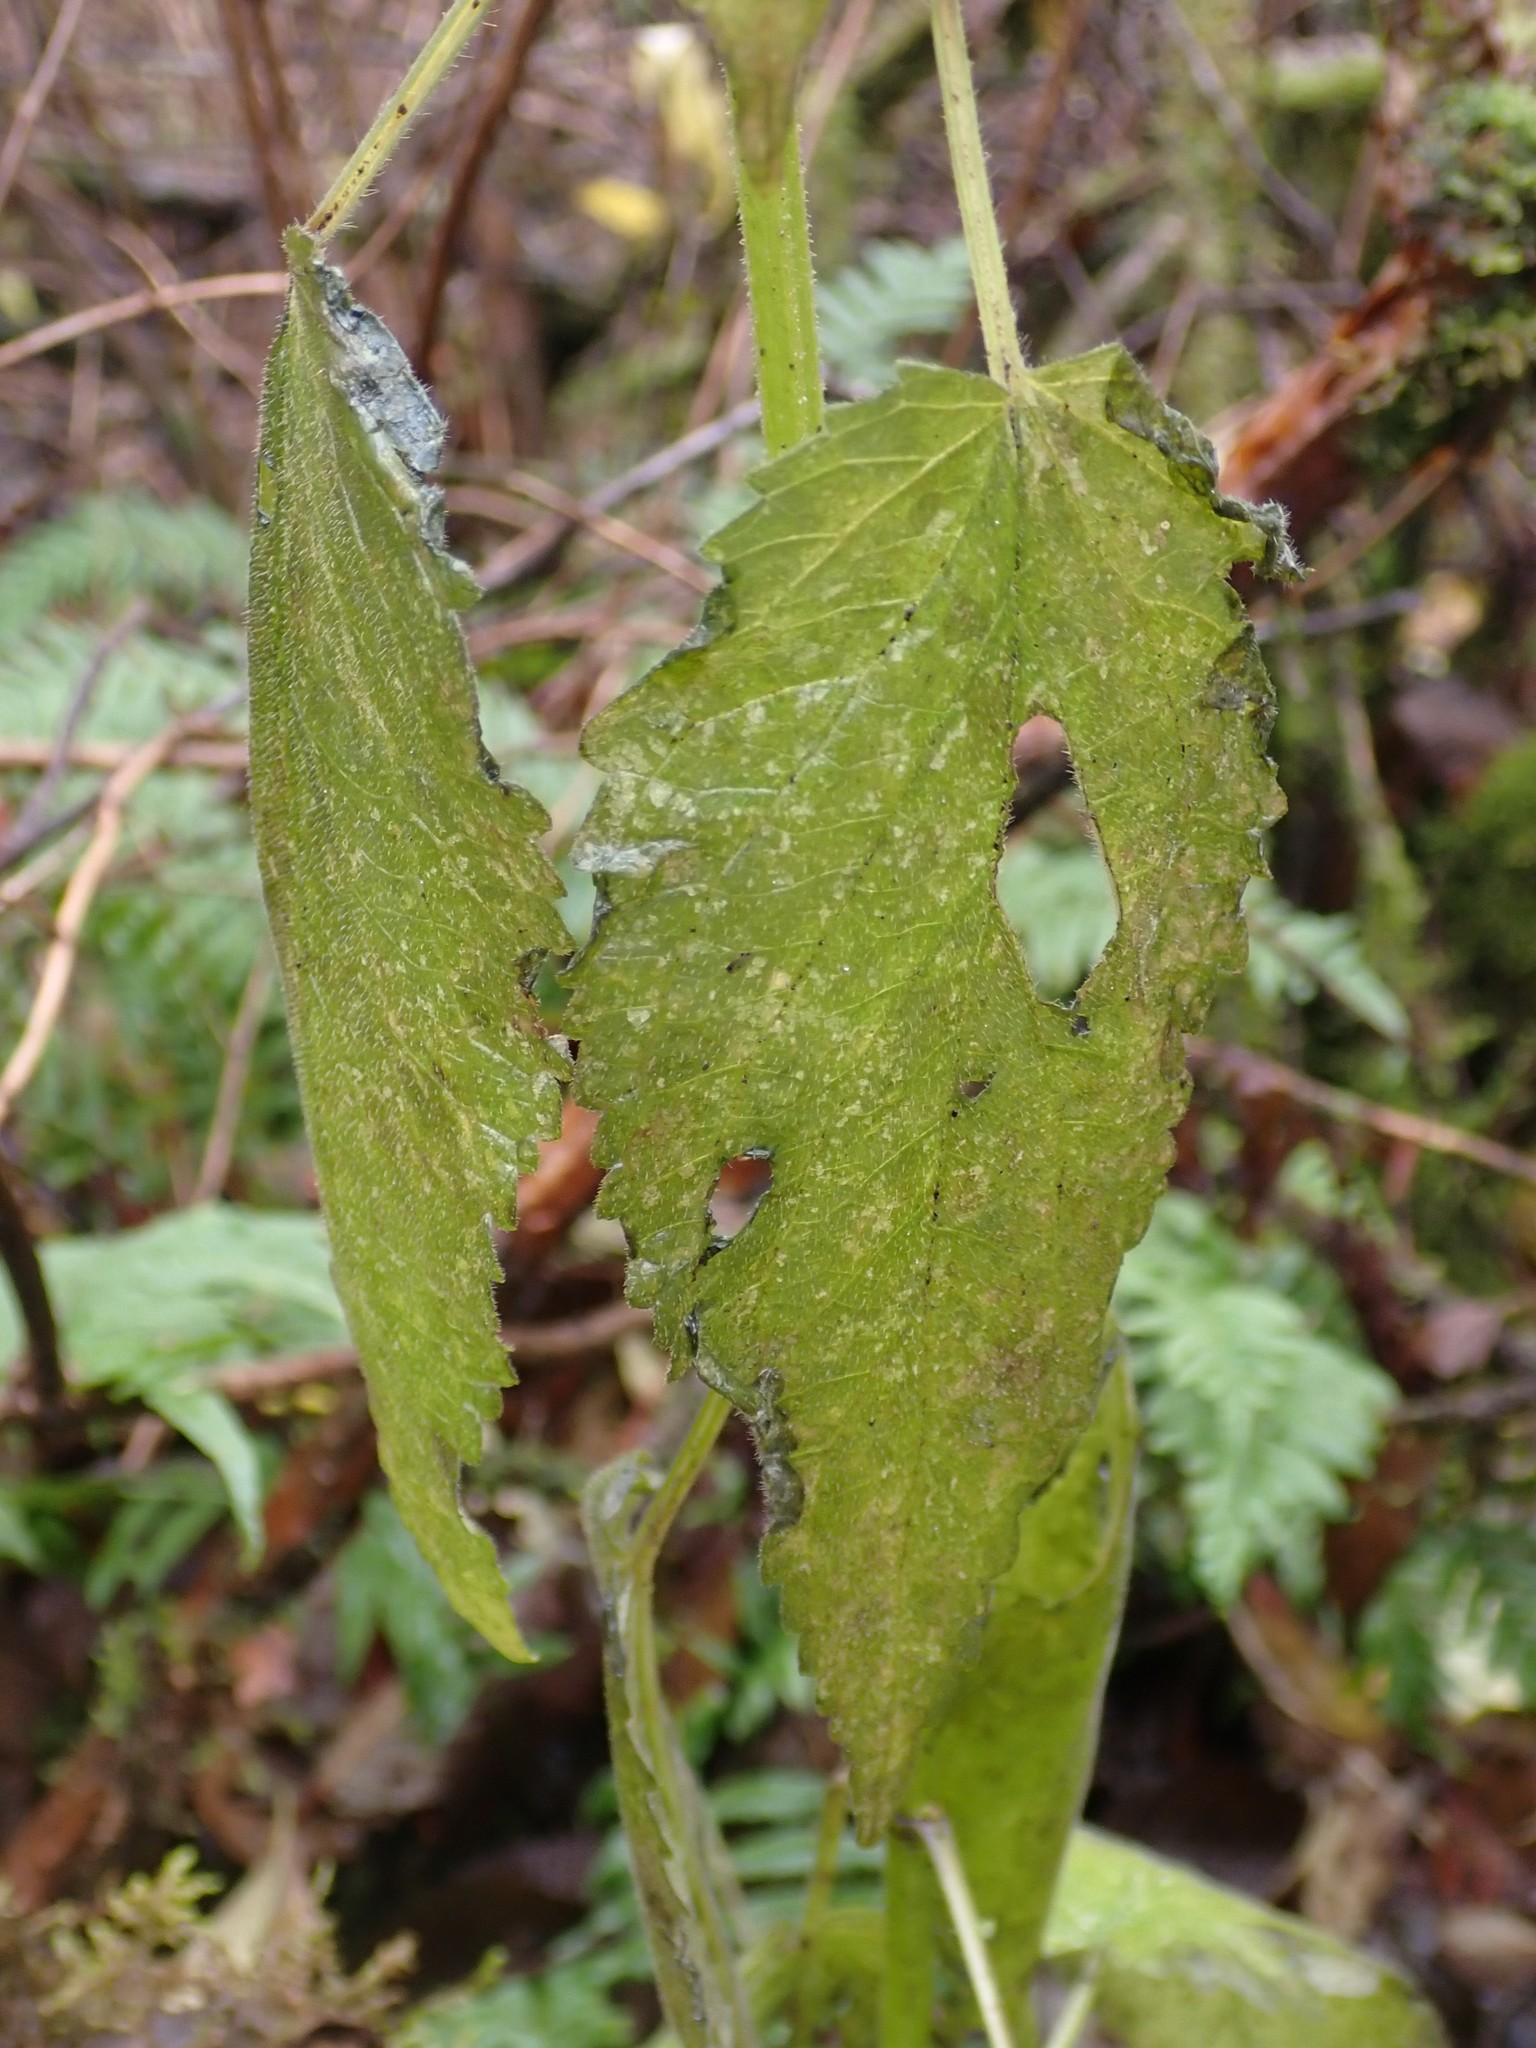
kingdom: Plantae
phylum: Tracheophyta
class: Magnoliopsida
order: Lamiales
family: Lamiaceae
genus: Stachys
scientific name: Stachys chamissonis
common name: Coastal hedge-nettle
